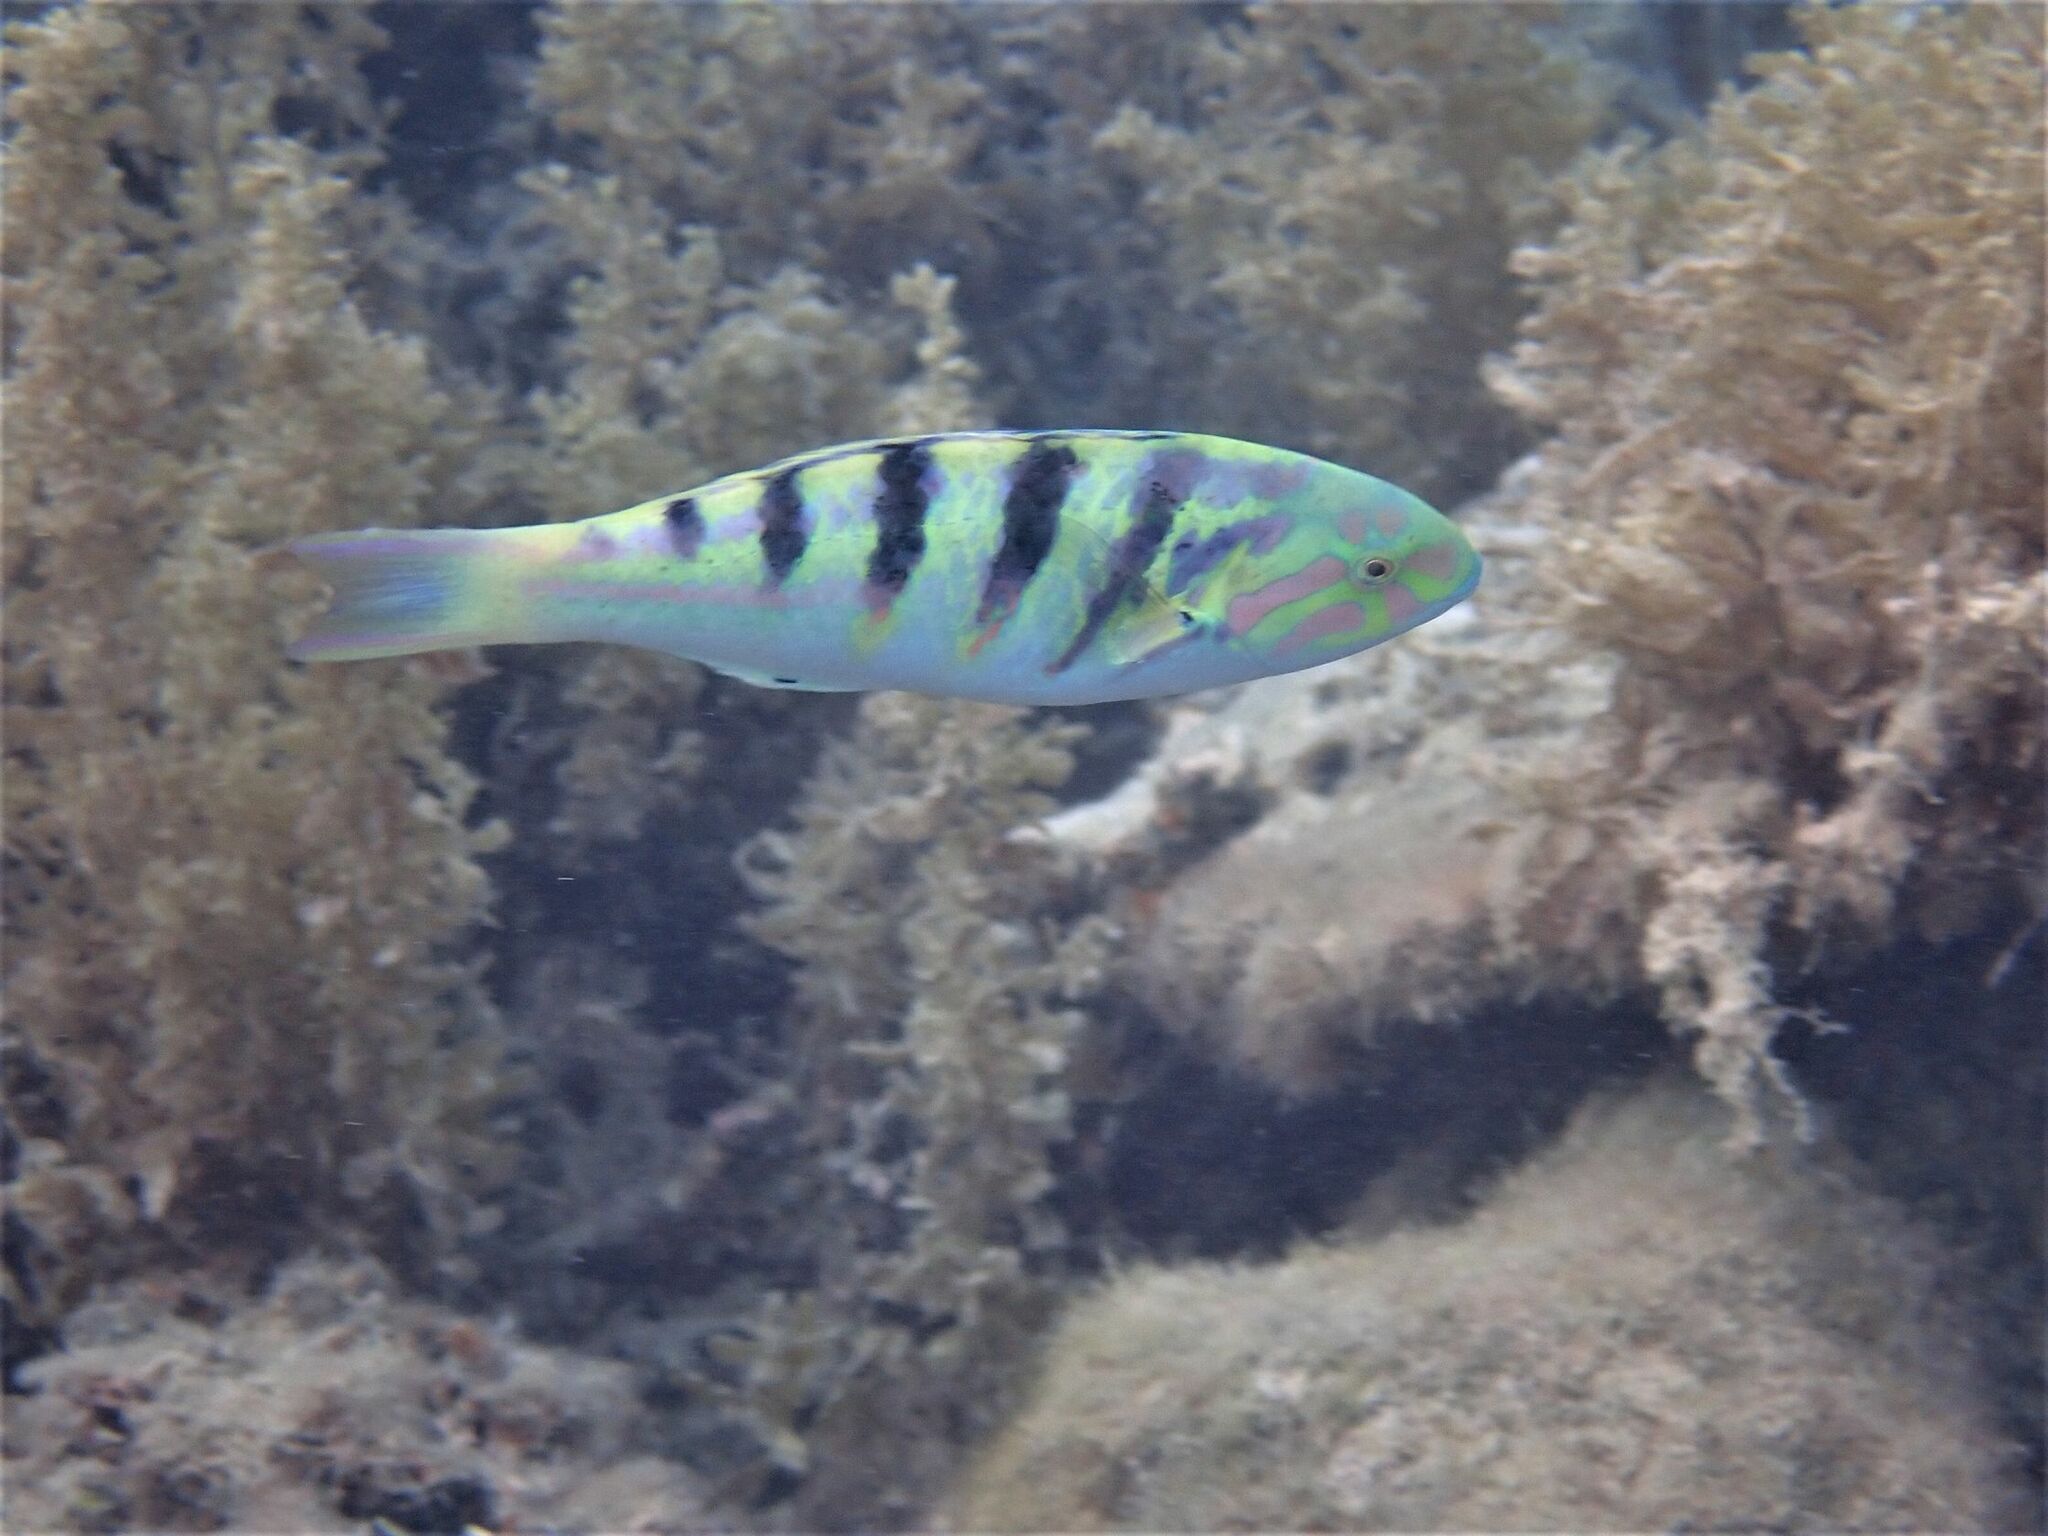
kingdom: Animalia
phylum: Chordata
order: Perciformes
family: Labridae
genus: Thalassoma
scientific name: Thalassoma hardwicke
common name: Sixbar wrasse
